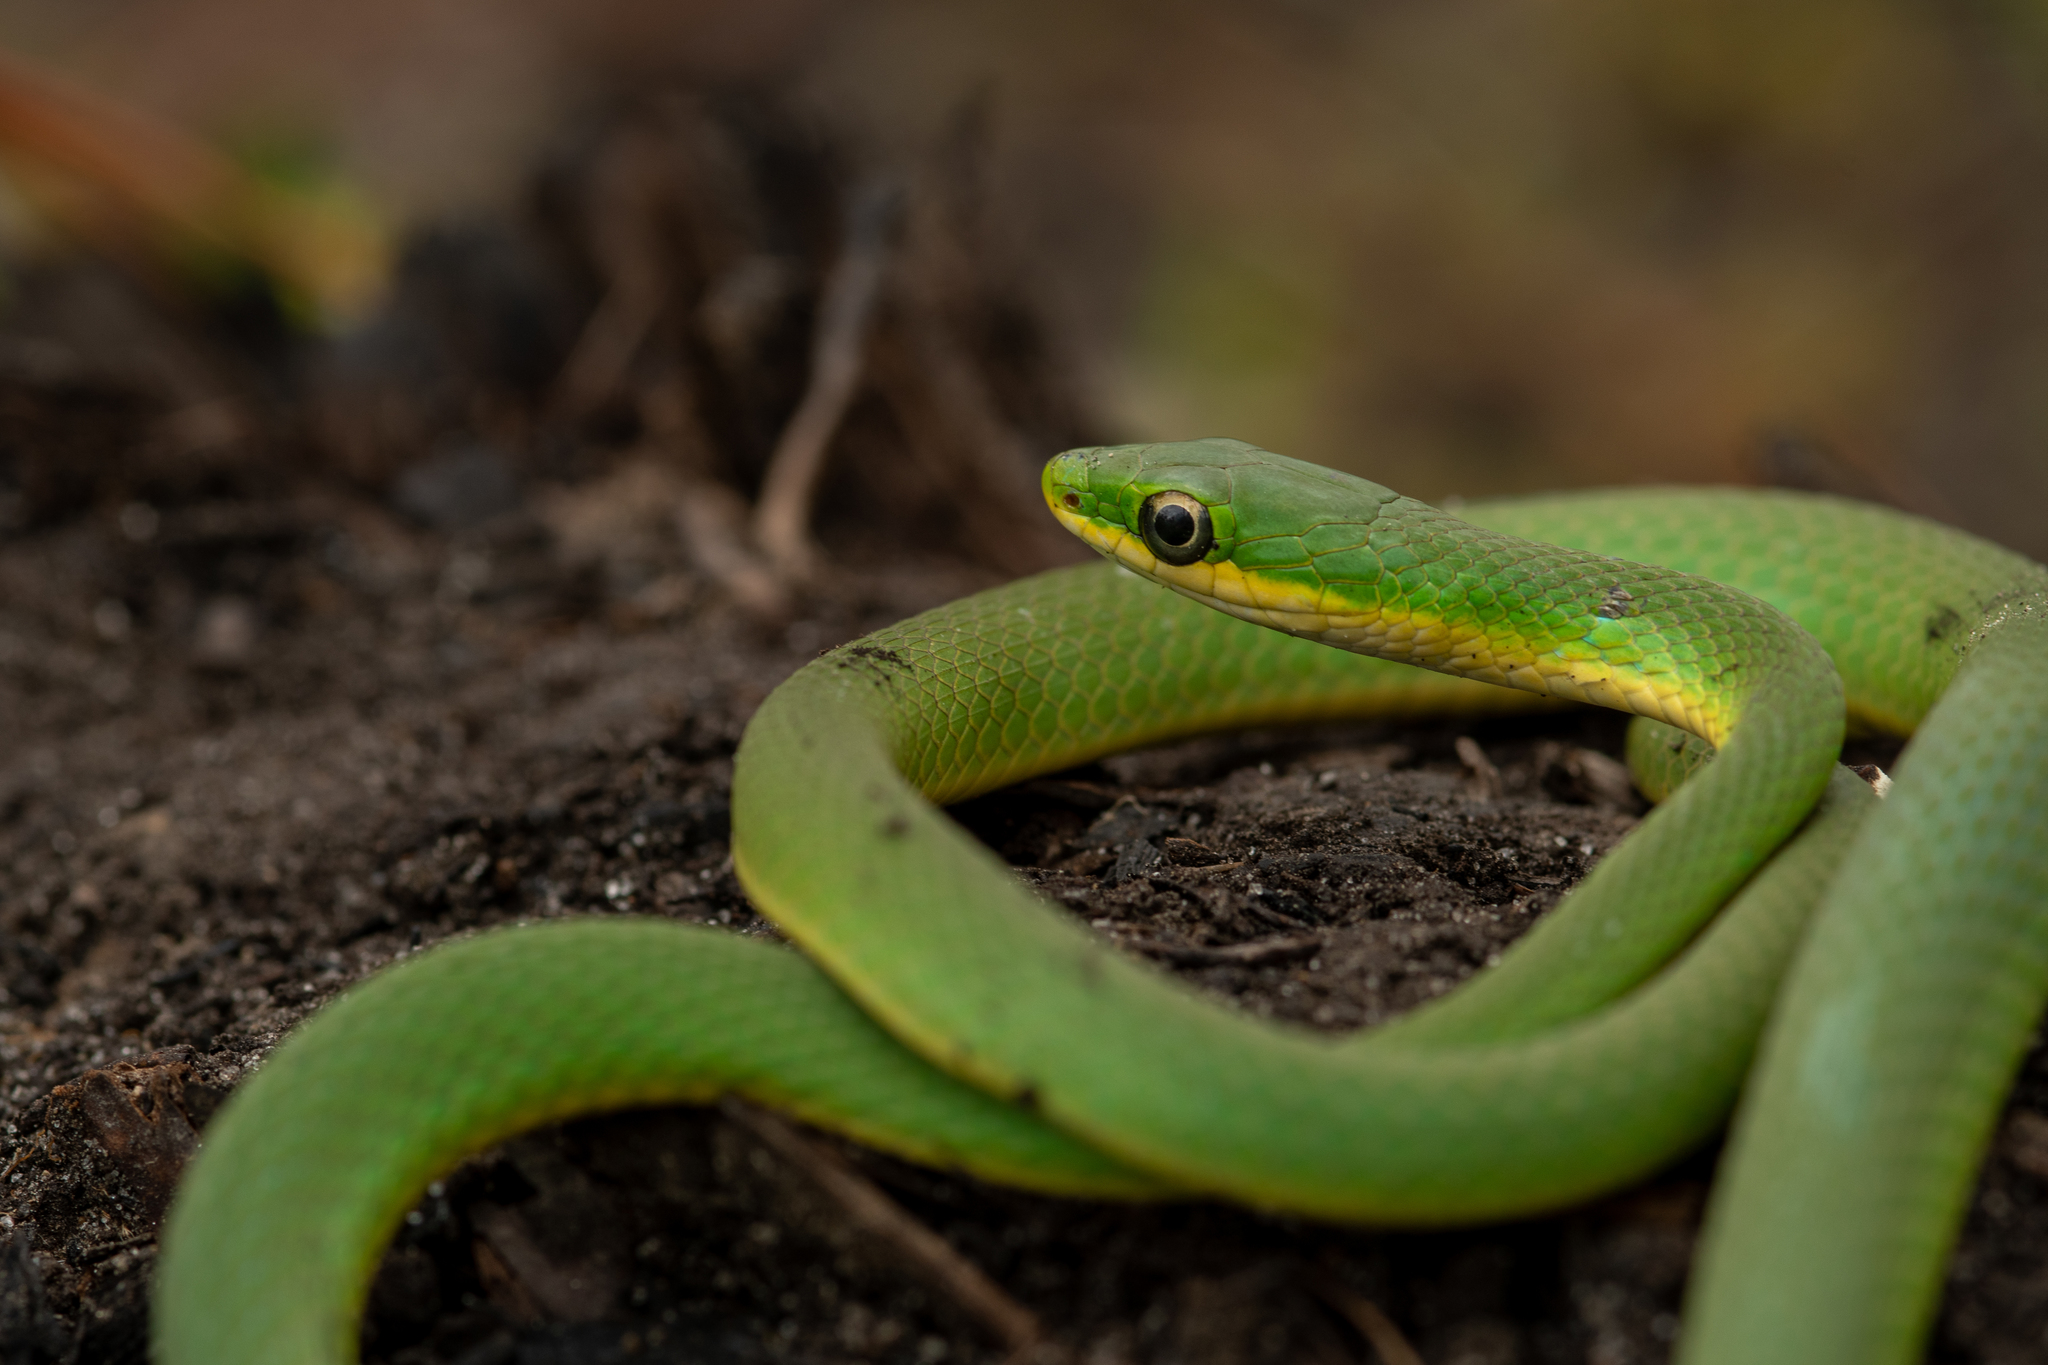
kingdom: Animalia
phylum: Chordata
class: Squamata
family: Colubridae
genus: Opheodrys
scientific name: Opheodrys aestivus
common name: Rough greensnake
